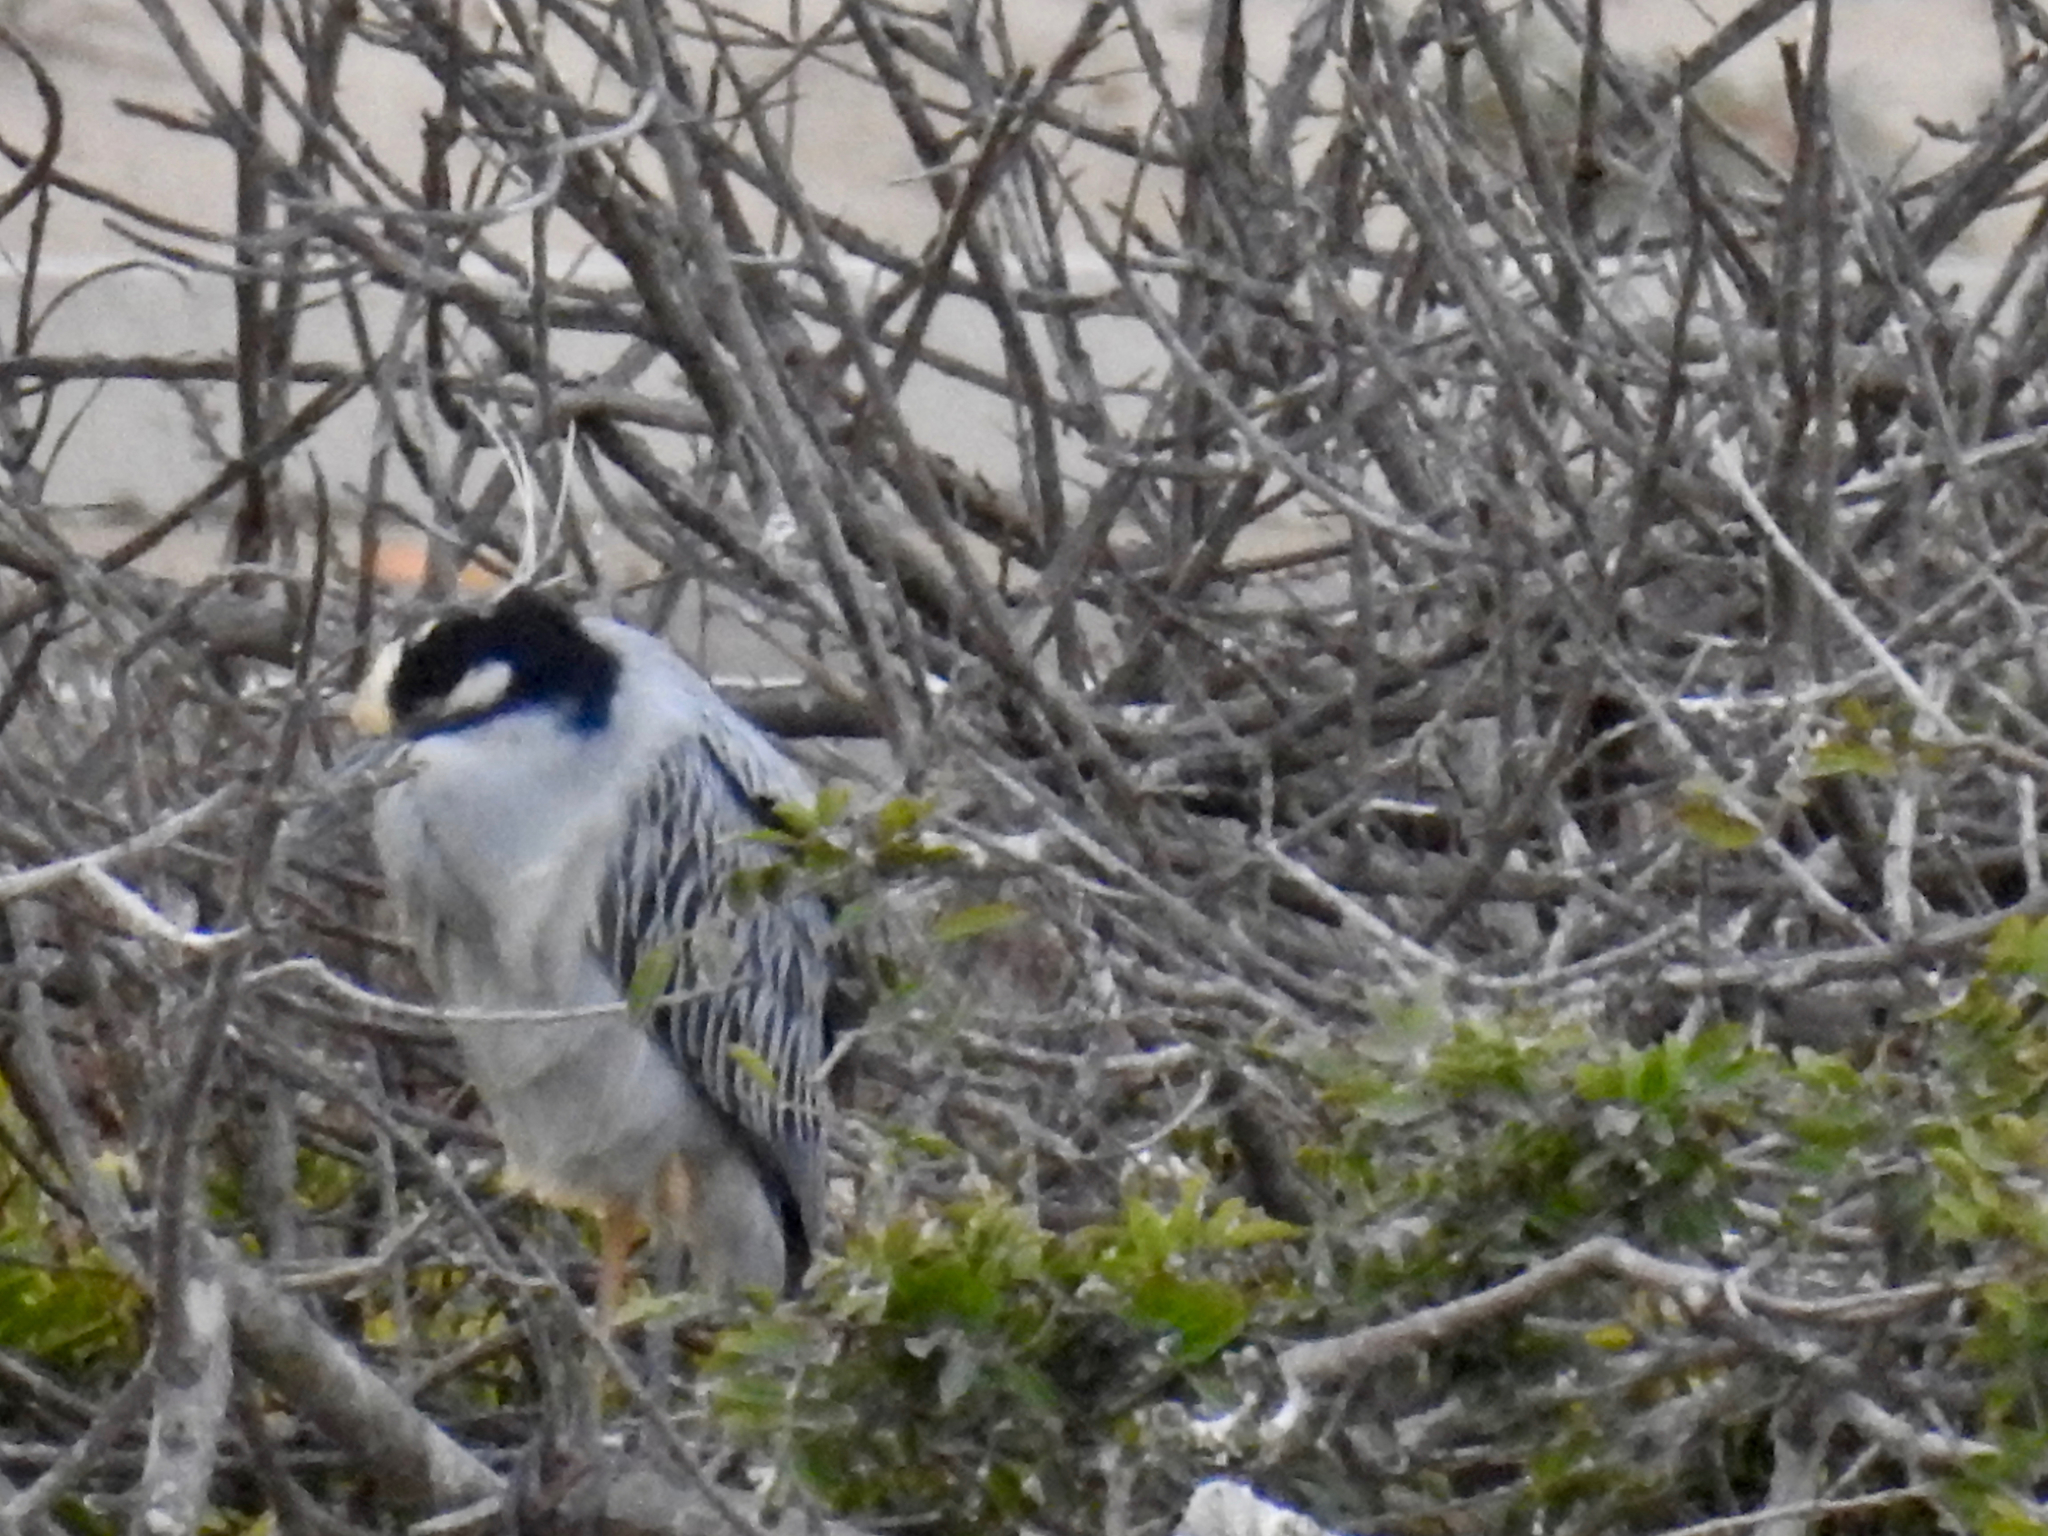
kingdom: Animalia
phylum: Chordata
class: Aves
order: Pelecaniformes
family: Ardeidae
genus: Nyctanassa
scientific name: Nyctanassa violacea
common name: Yellow-crowned night heron
